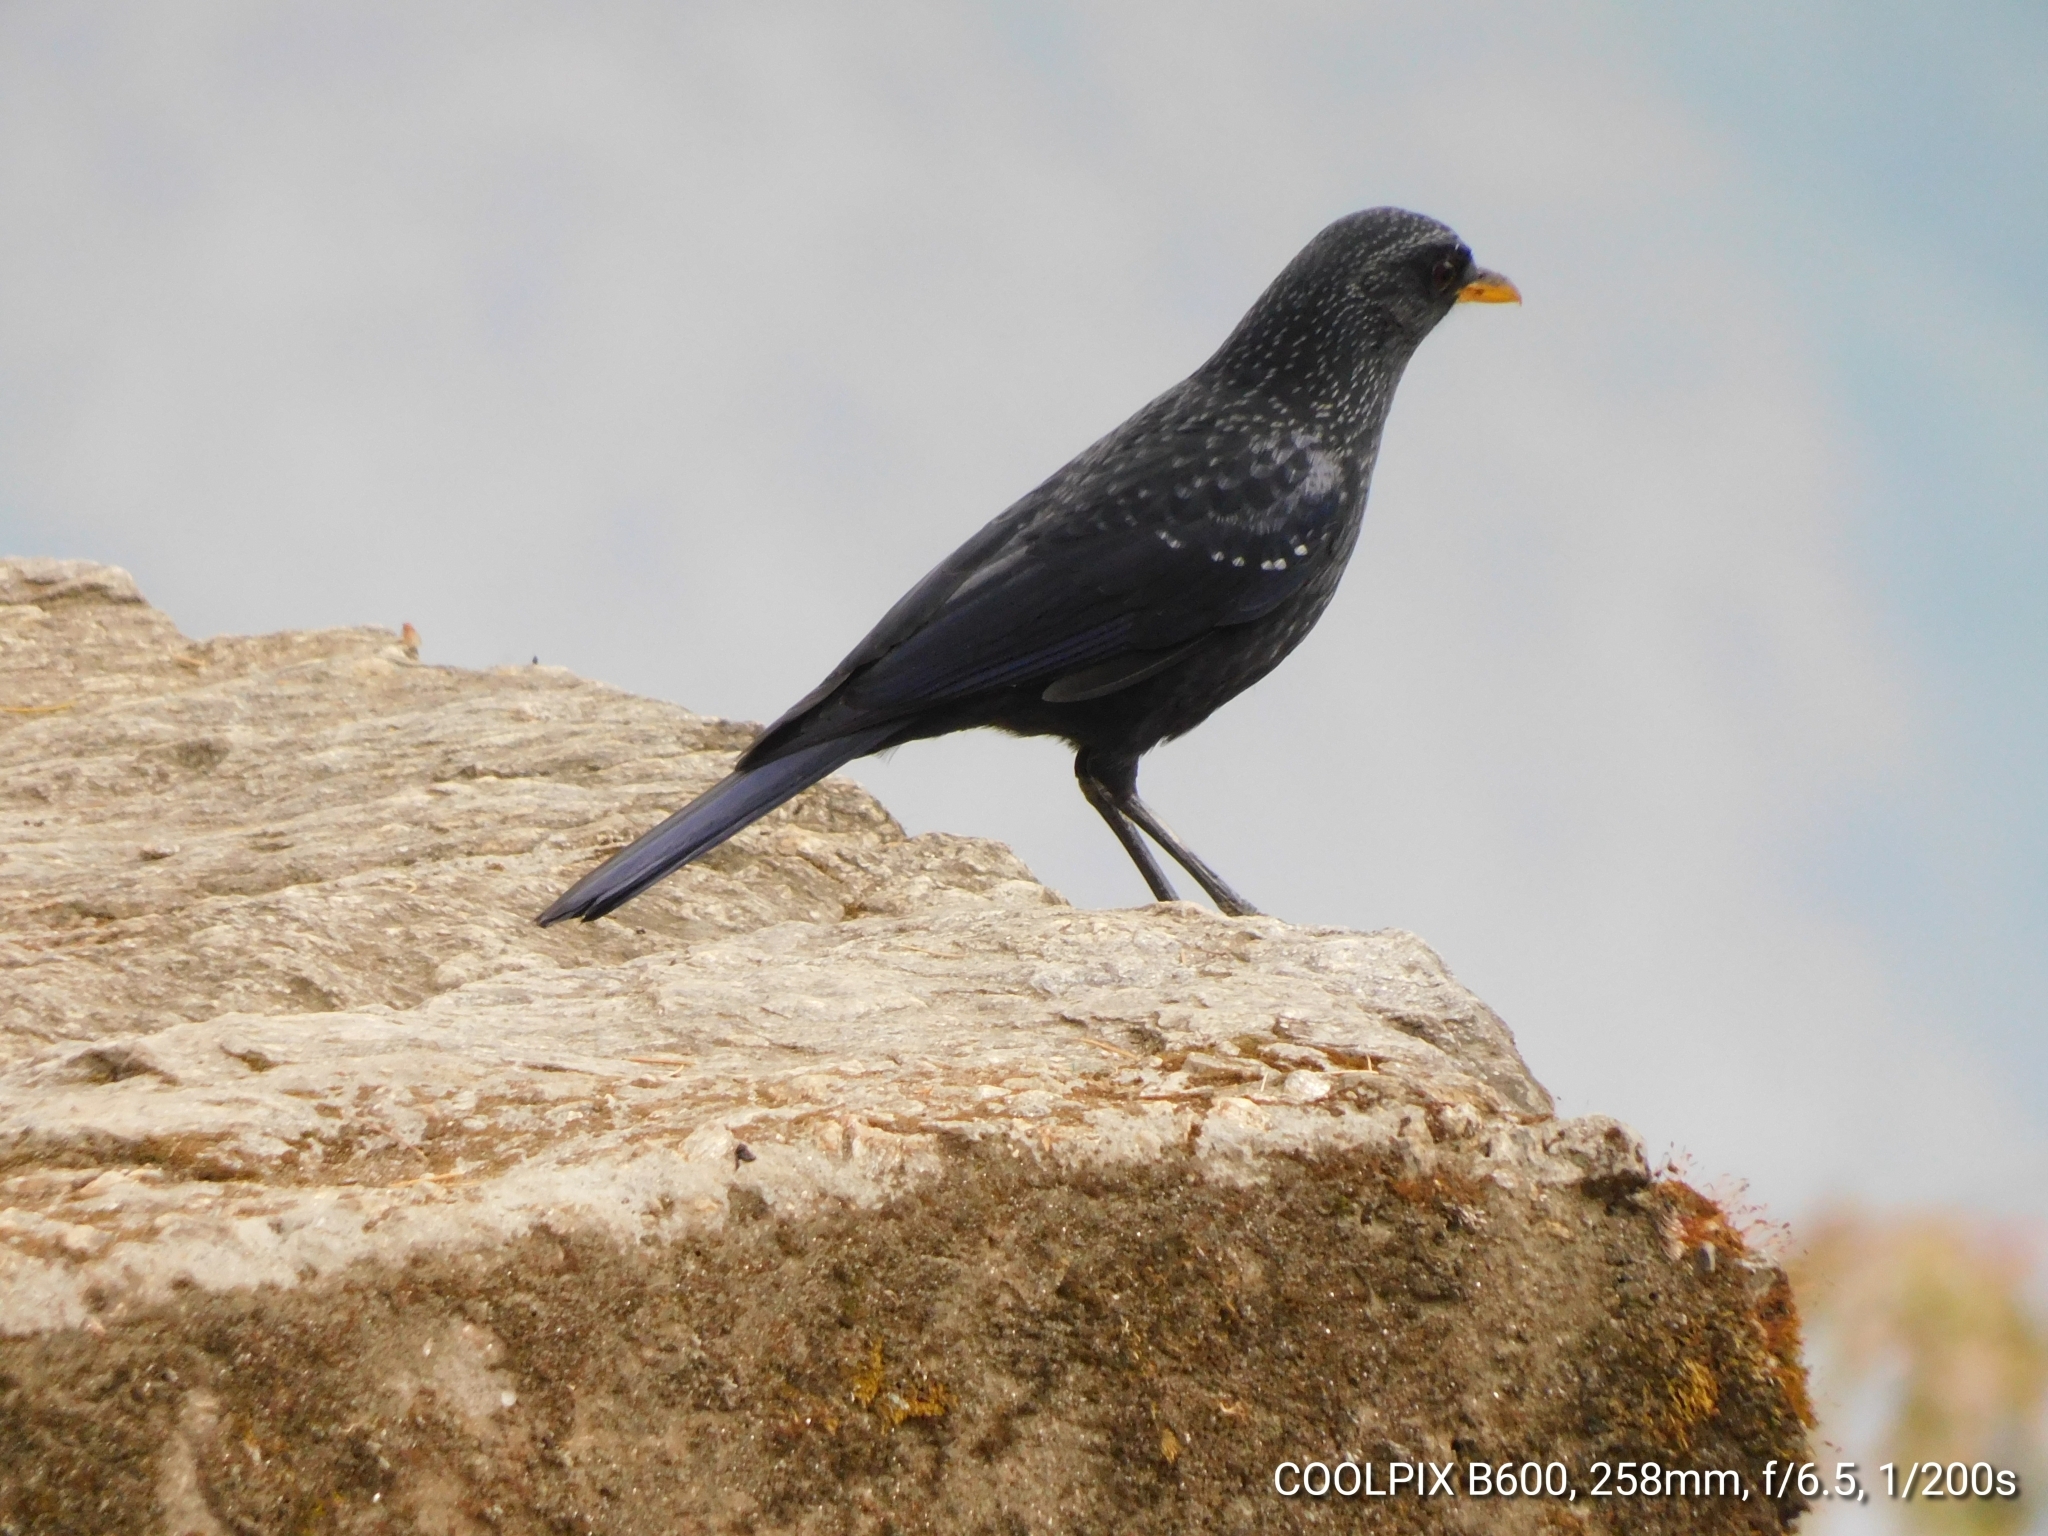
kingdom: Animalia
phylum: Chordata
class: Aves
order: Passeriformes
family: Muscicapidae
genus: Myophonus
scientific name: Myophonus caeruleus
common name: Blue whistling-thrush
